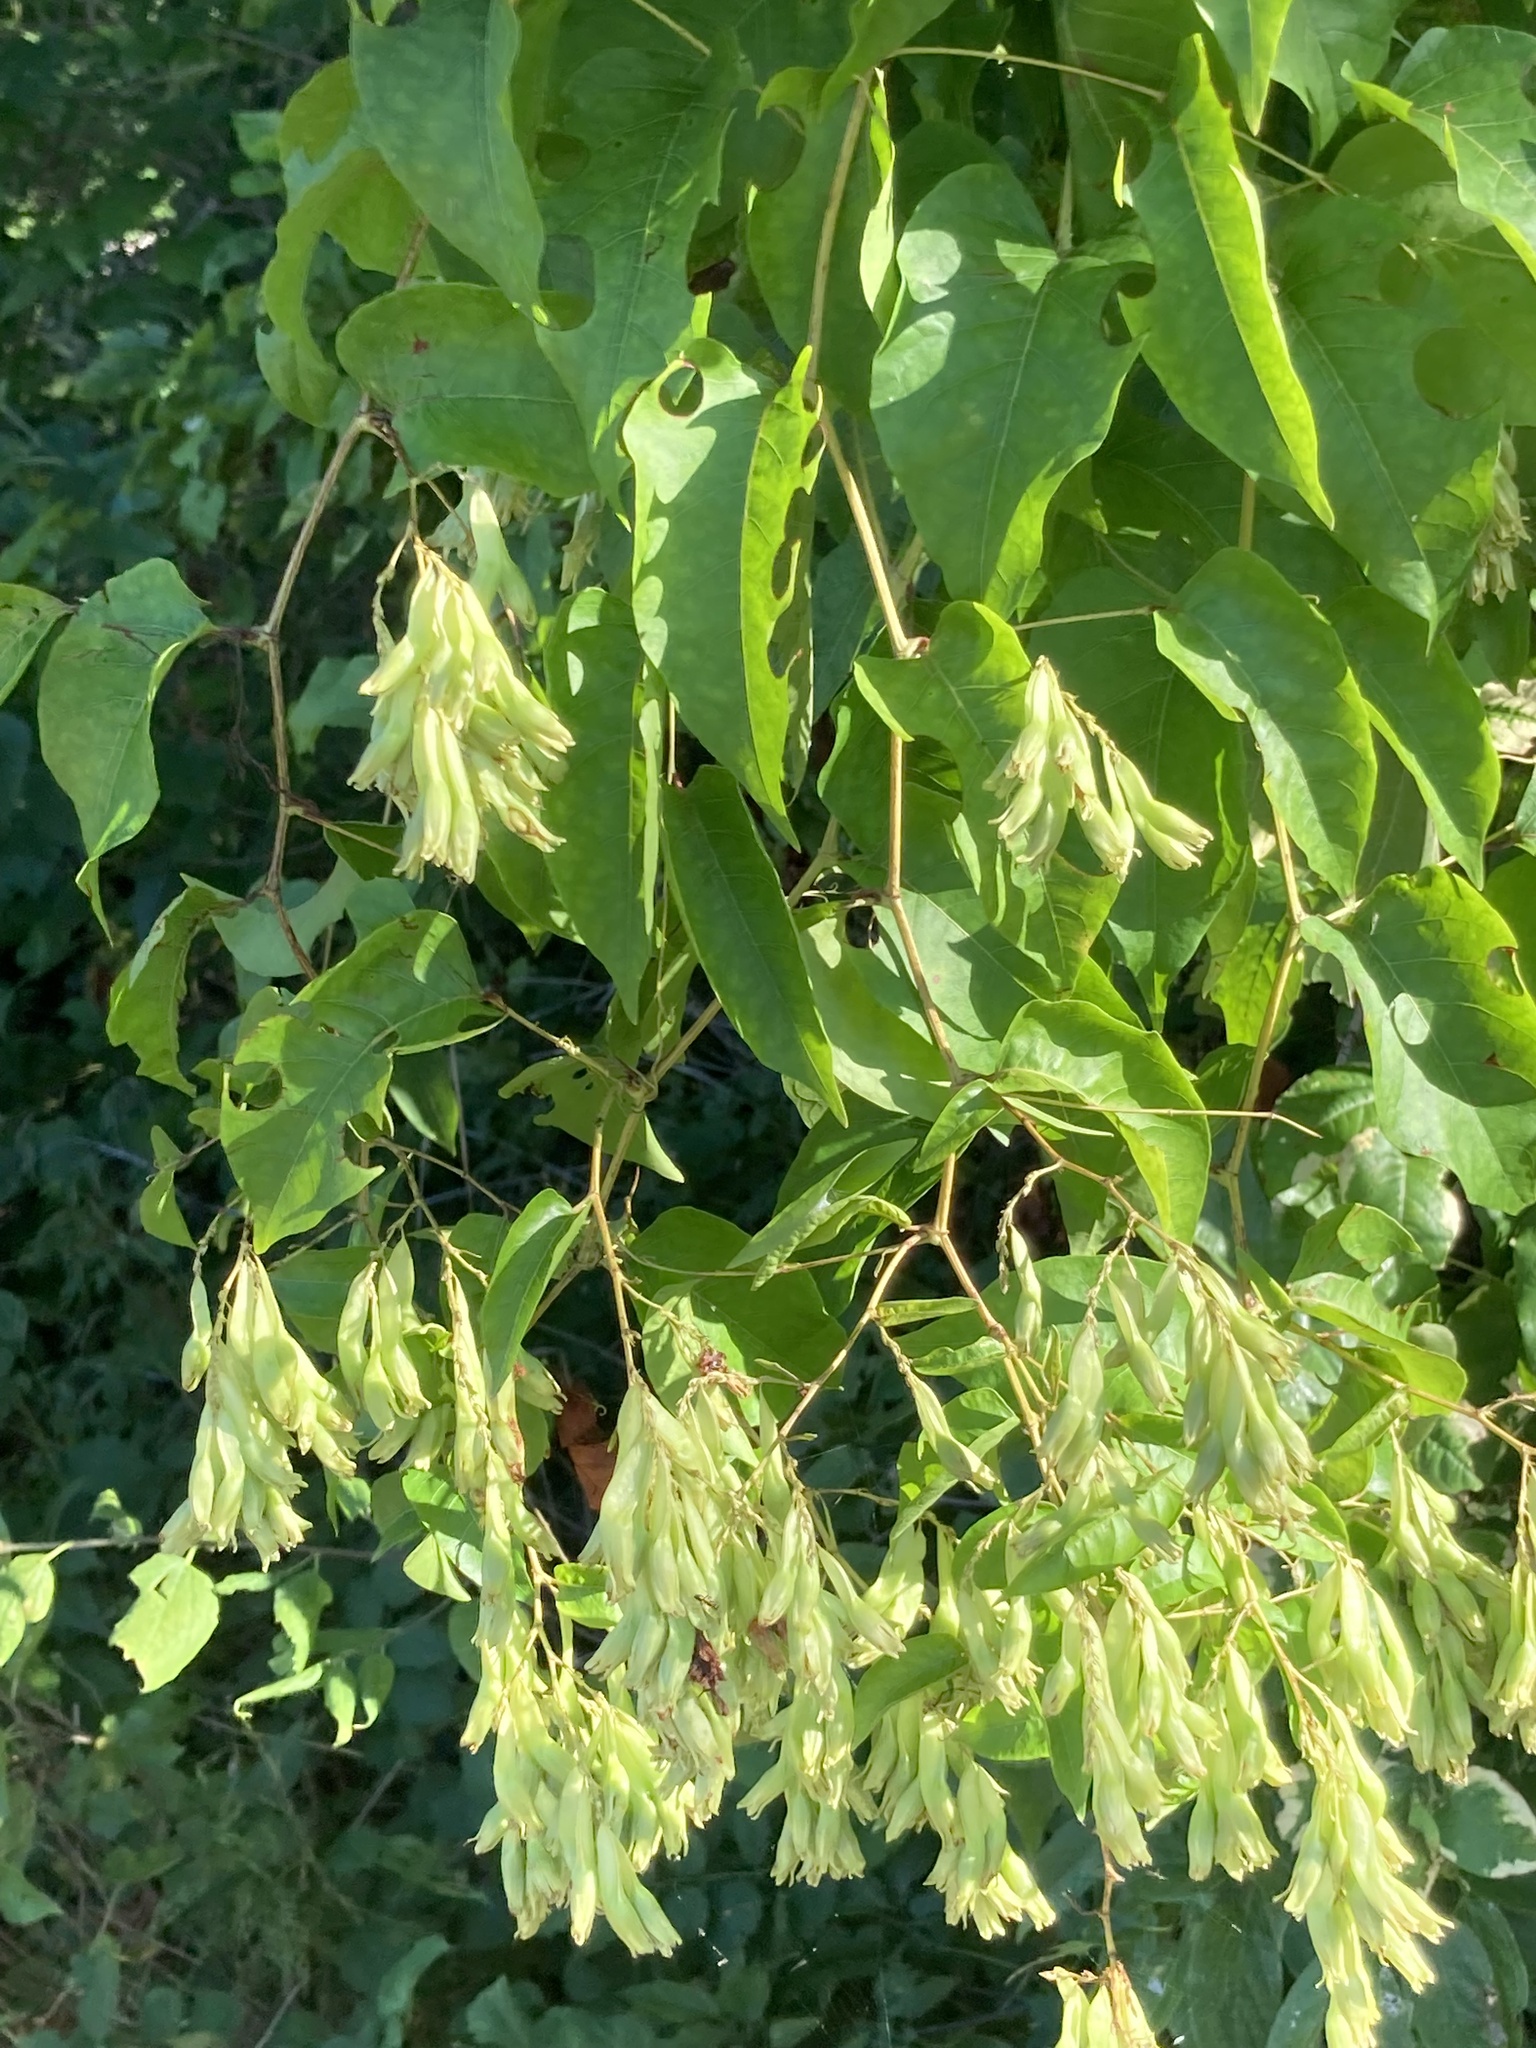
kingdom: Plantae
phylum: Tracheophyta
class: Magnoliopsida
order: Caryophyllales
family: Polygonaceae
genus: Brunnichia
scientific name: Brunnichia ovata
